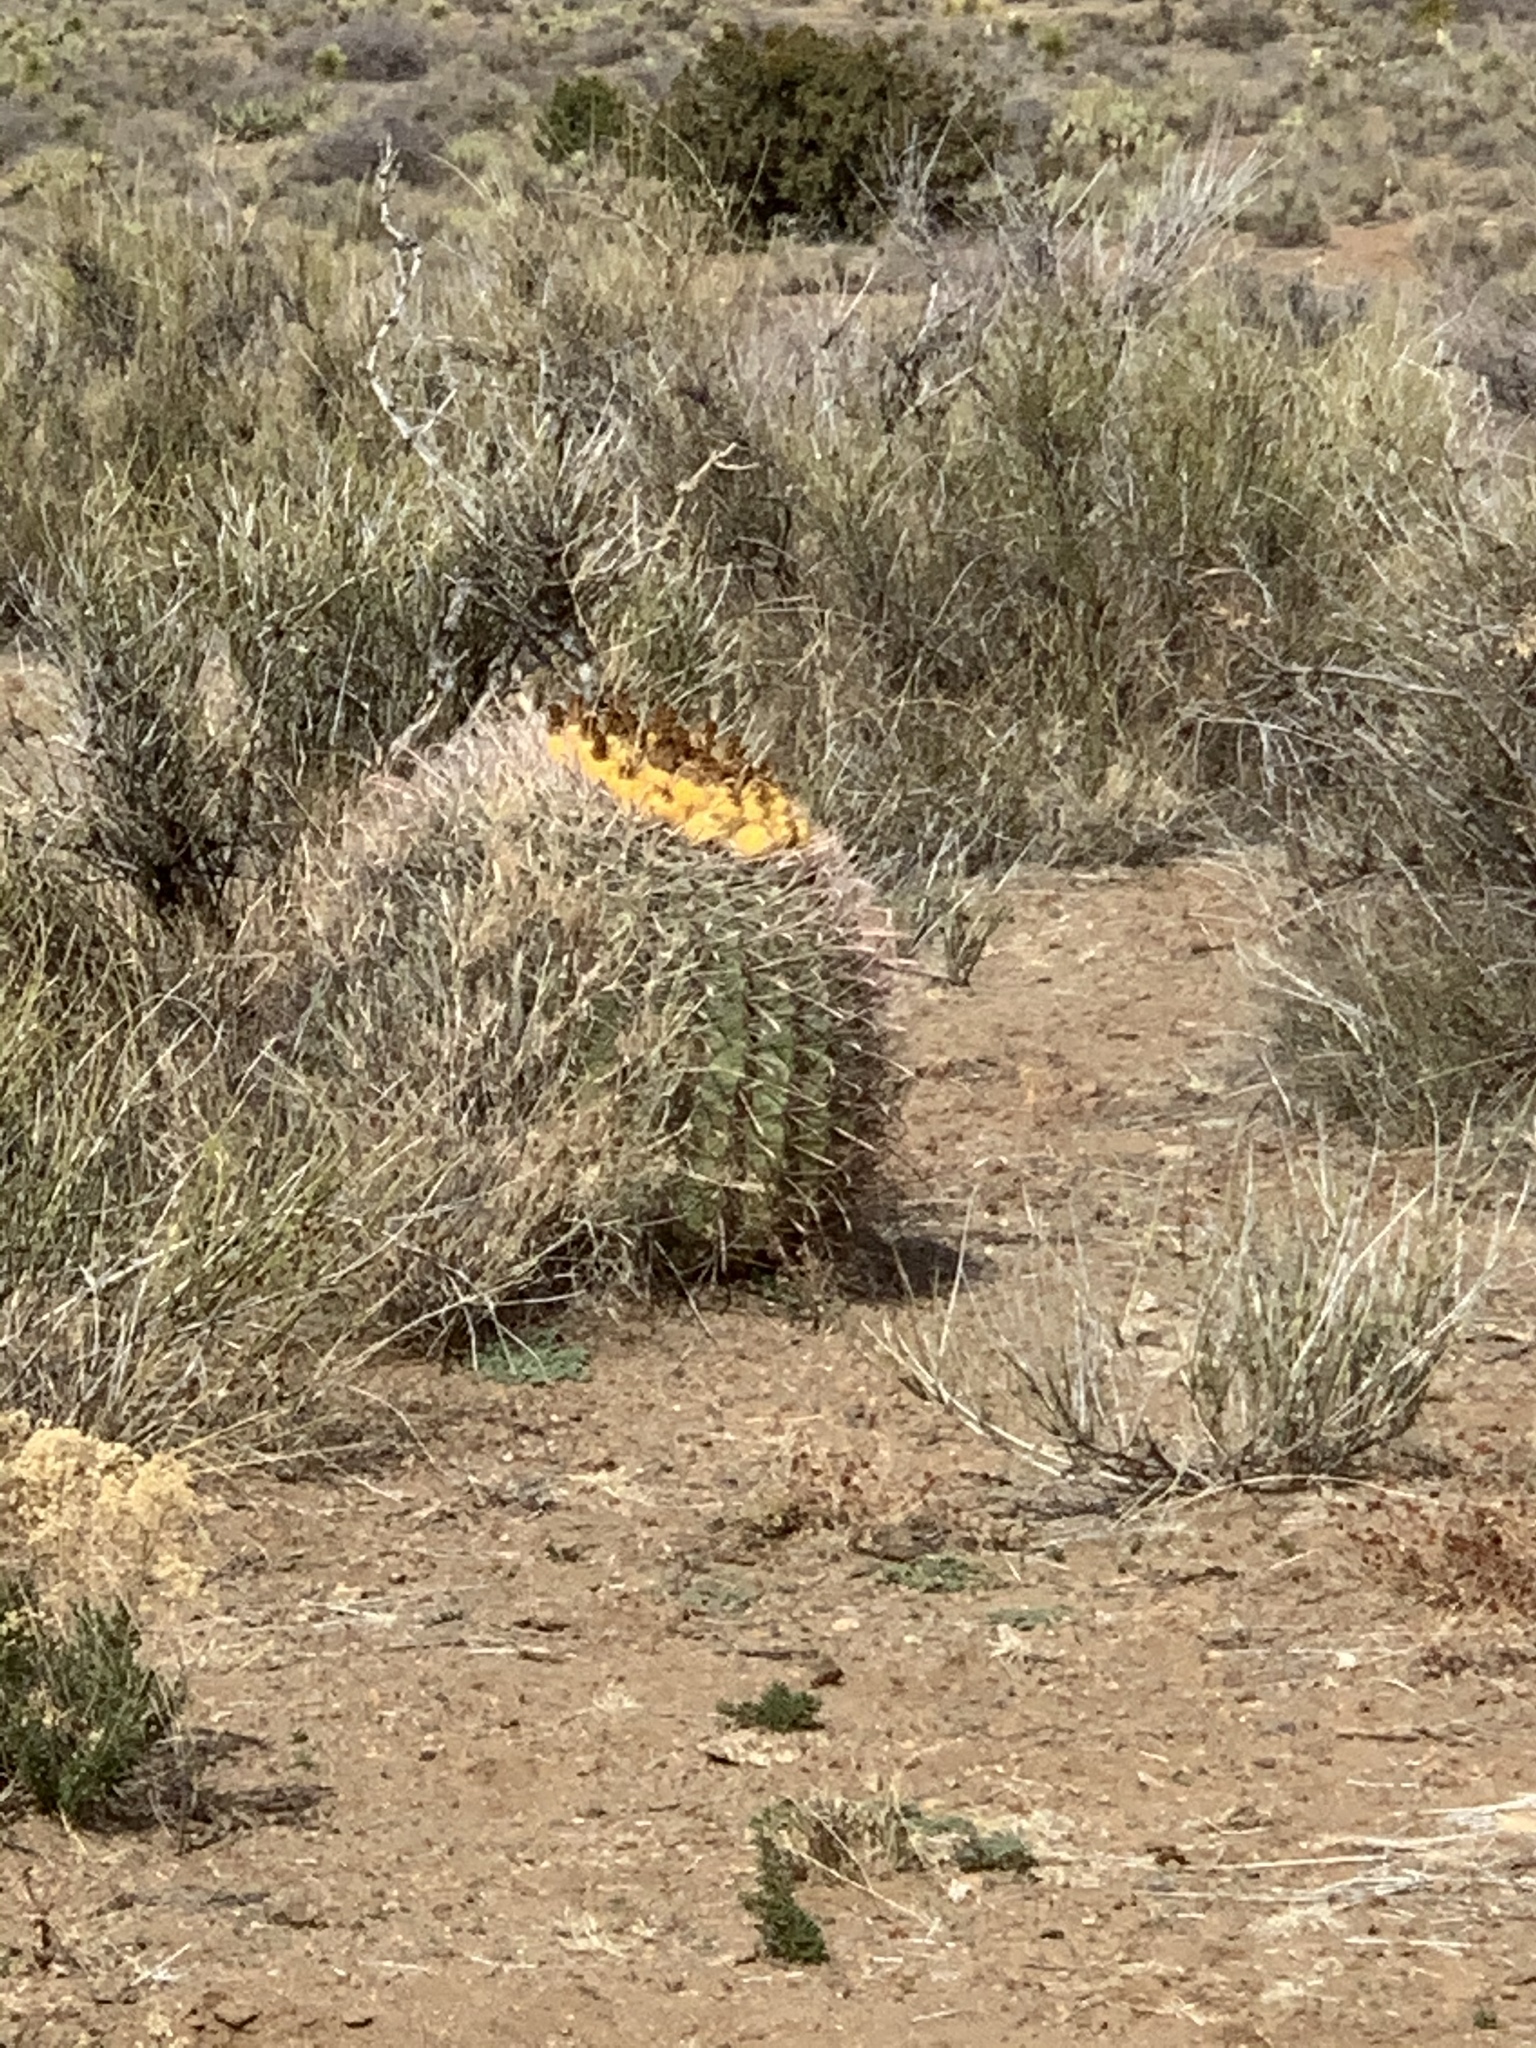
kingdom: Plantae
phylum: Tracheophyta
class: Magnoliopsida
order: Caryophyllales
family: Cactaceae
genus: Ferocactus
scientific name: Ferocactus wislizeni
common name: Candy barrel cactus
